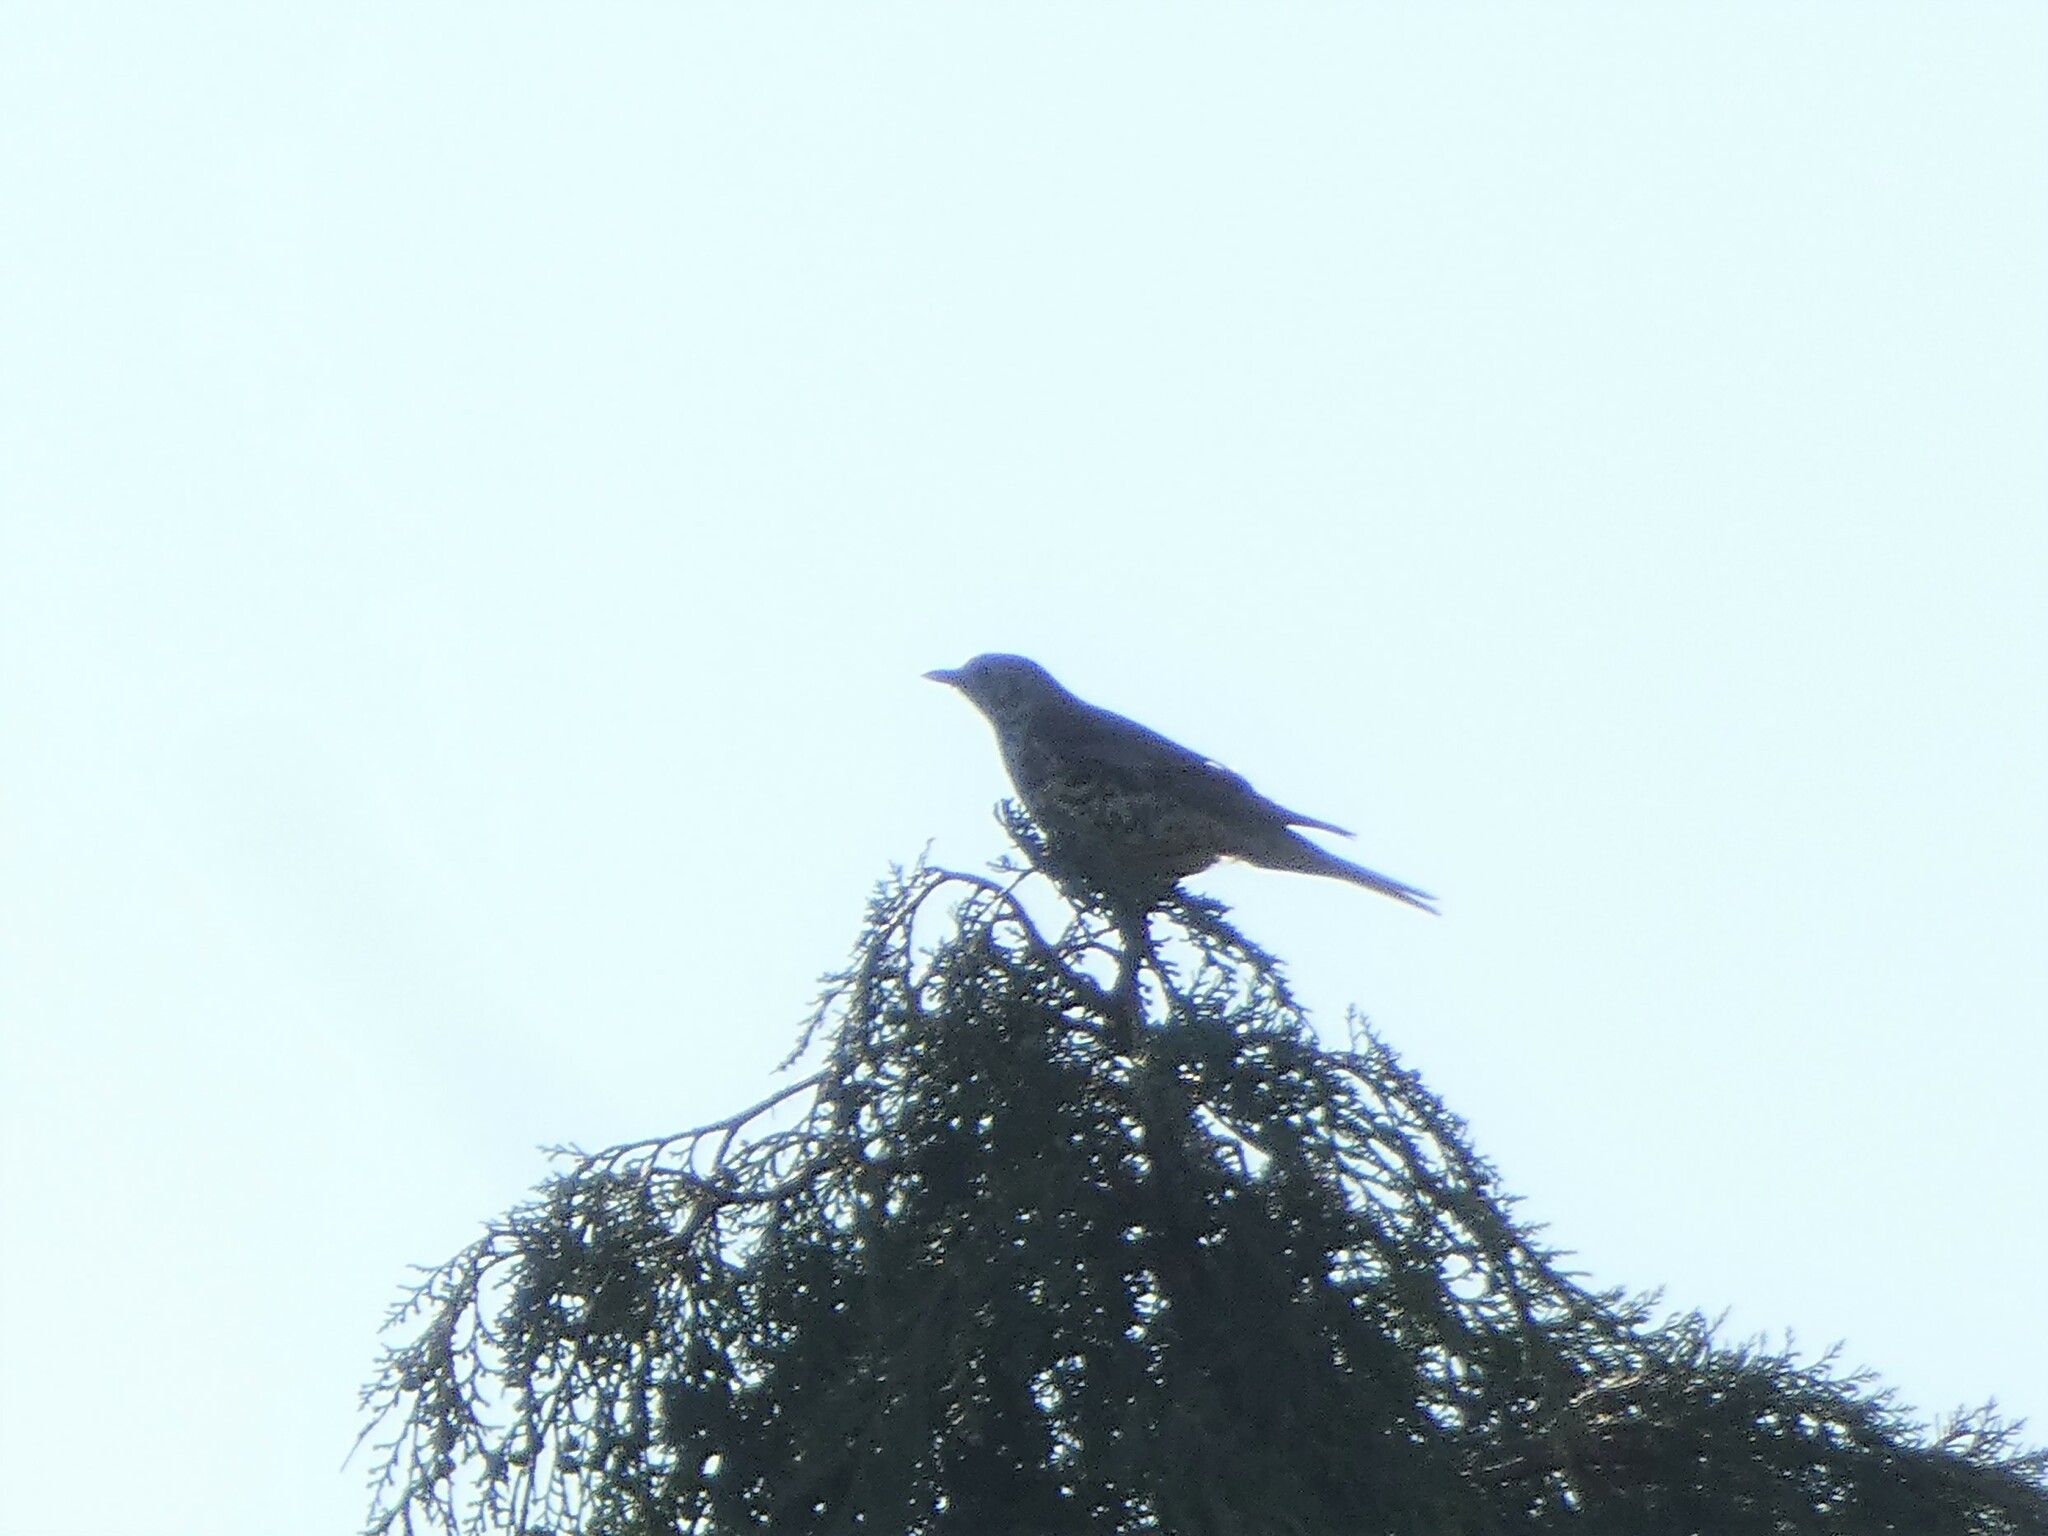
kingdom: Animalia
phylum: Chordata
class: Aves
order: Passeriformes
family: Turdidae
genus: Turdus
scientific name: Turdus viscivorus
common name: Mistle thrush
